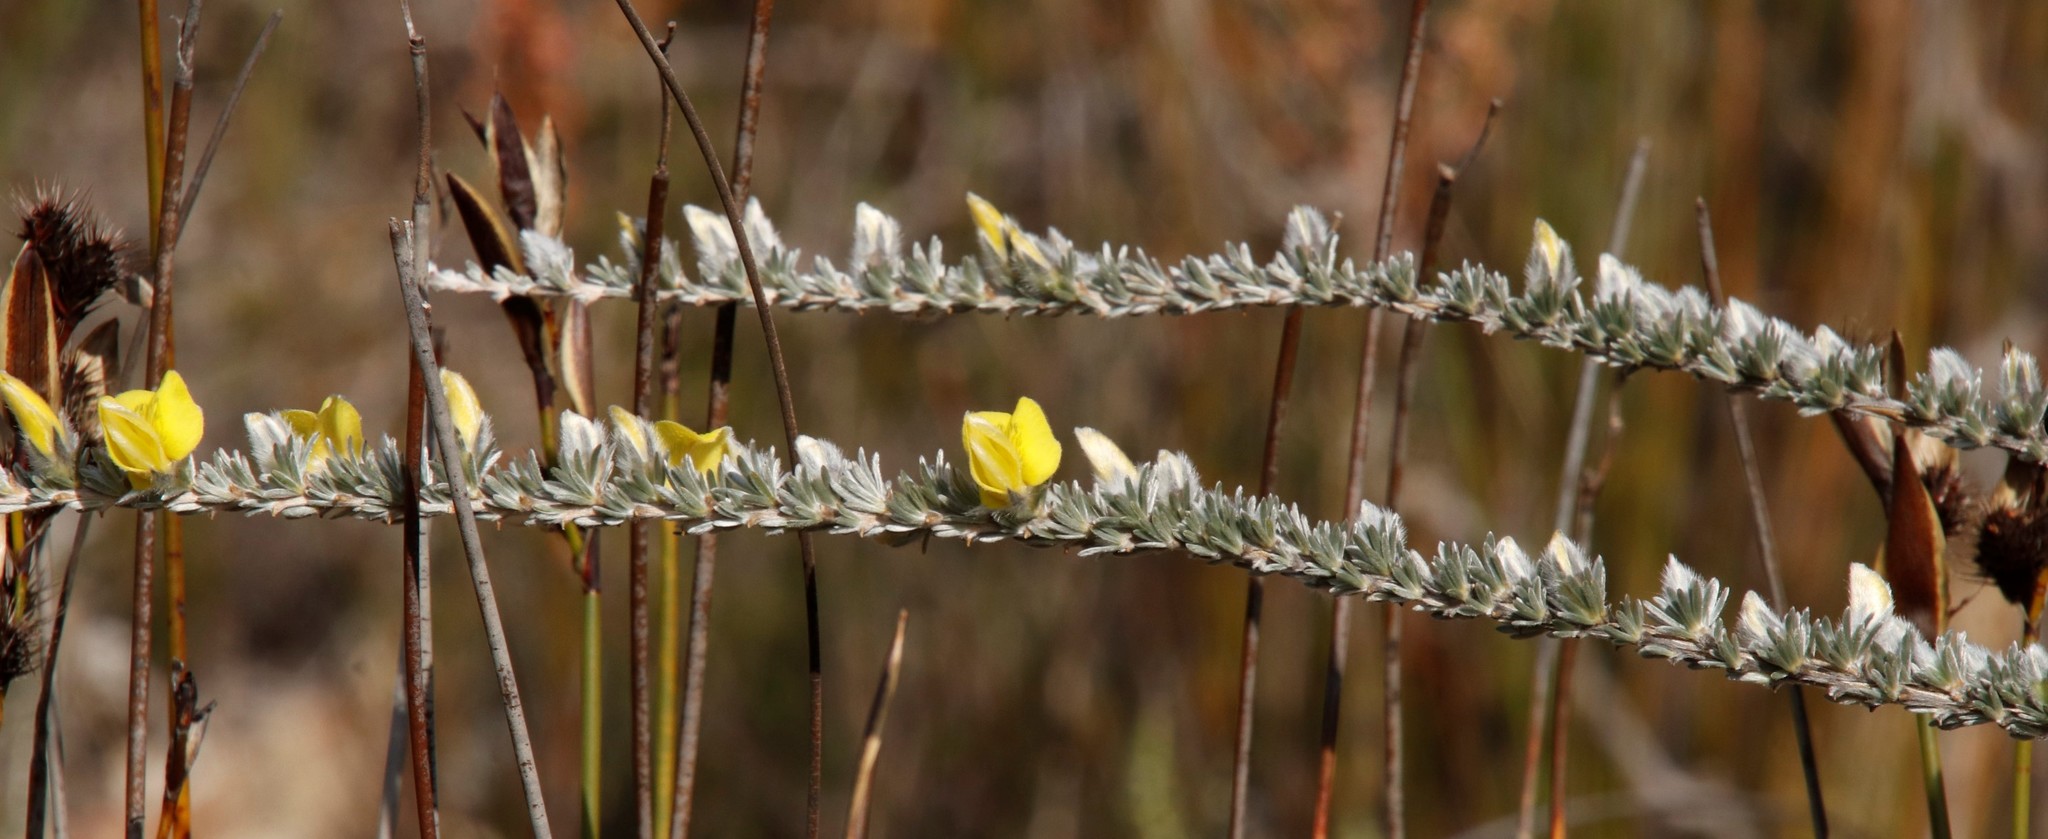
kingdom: Plantae
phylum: Tracheophyta
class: Magnoliopsida
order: Fabales
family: Fabaceae
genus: Aspalathus
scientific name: Aspalathus caledonensis
